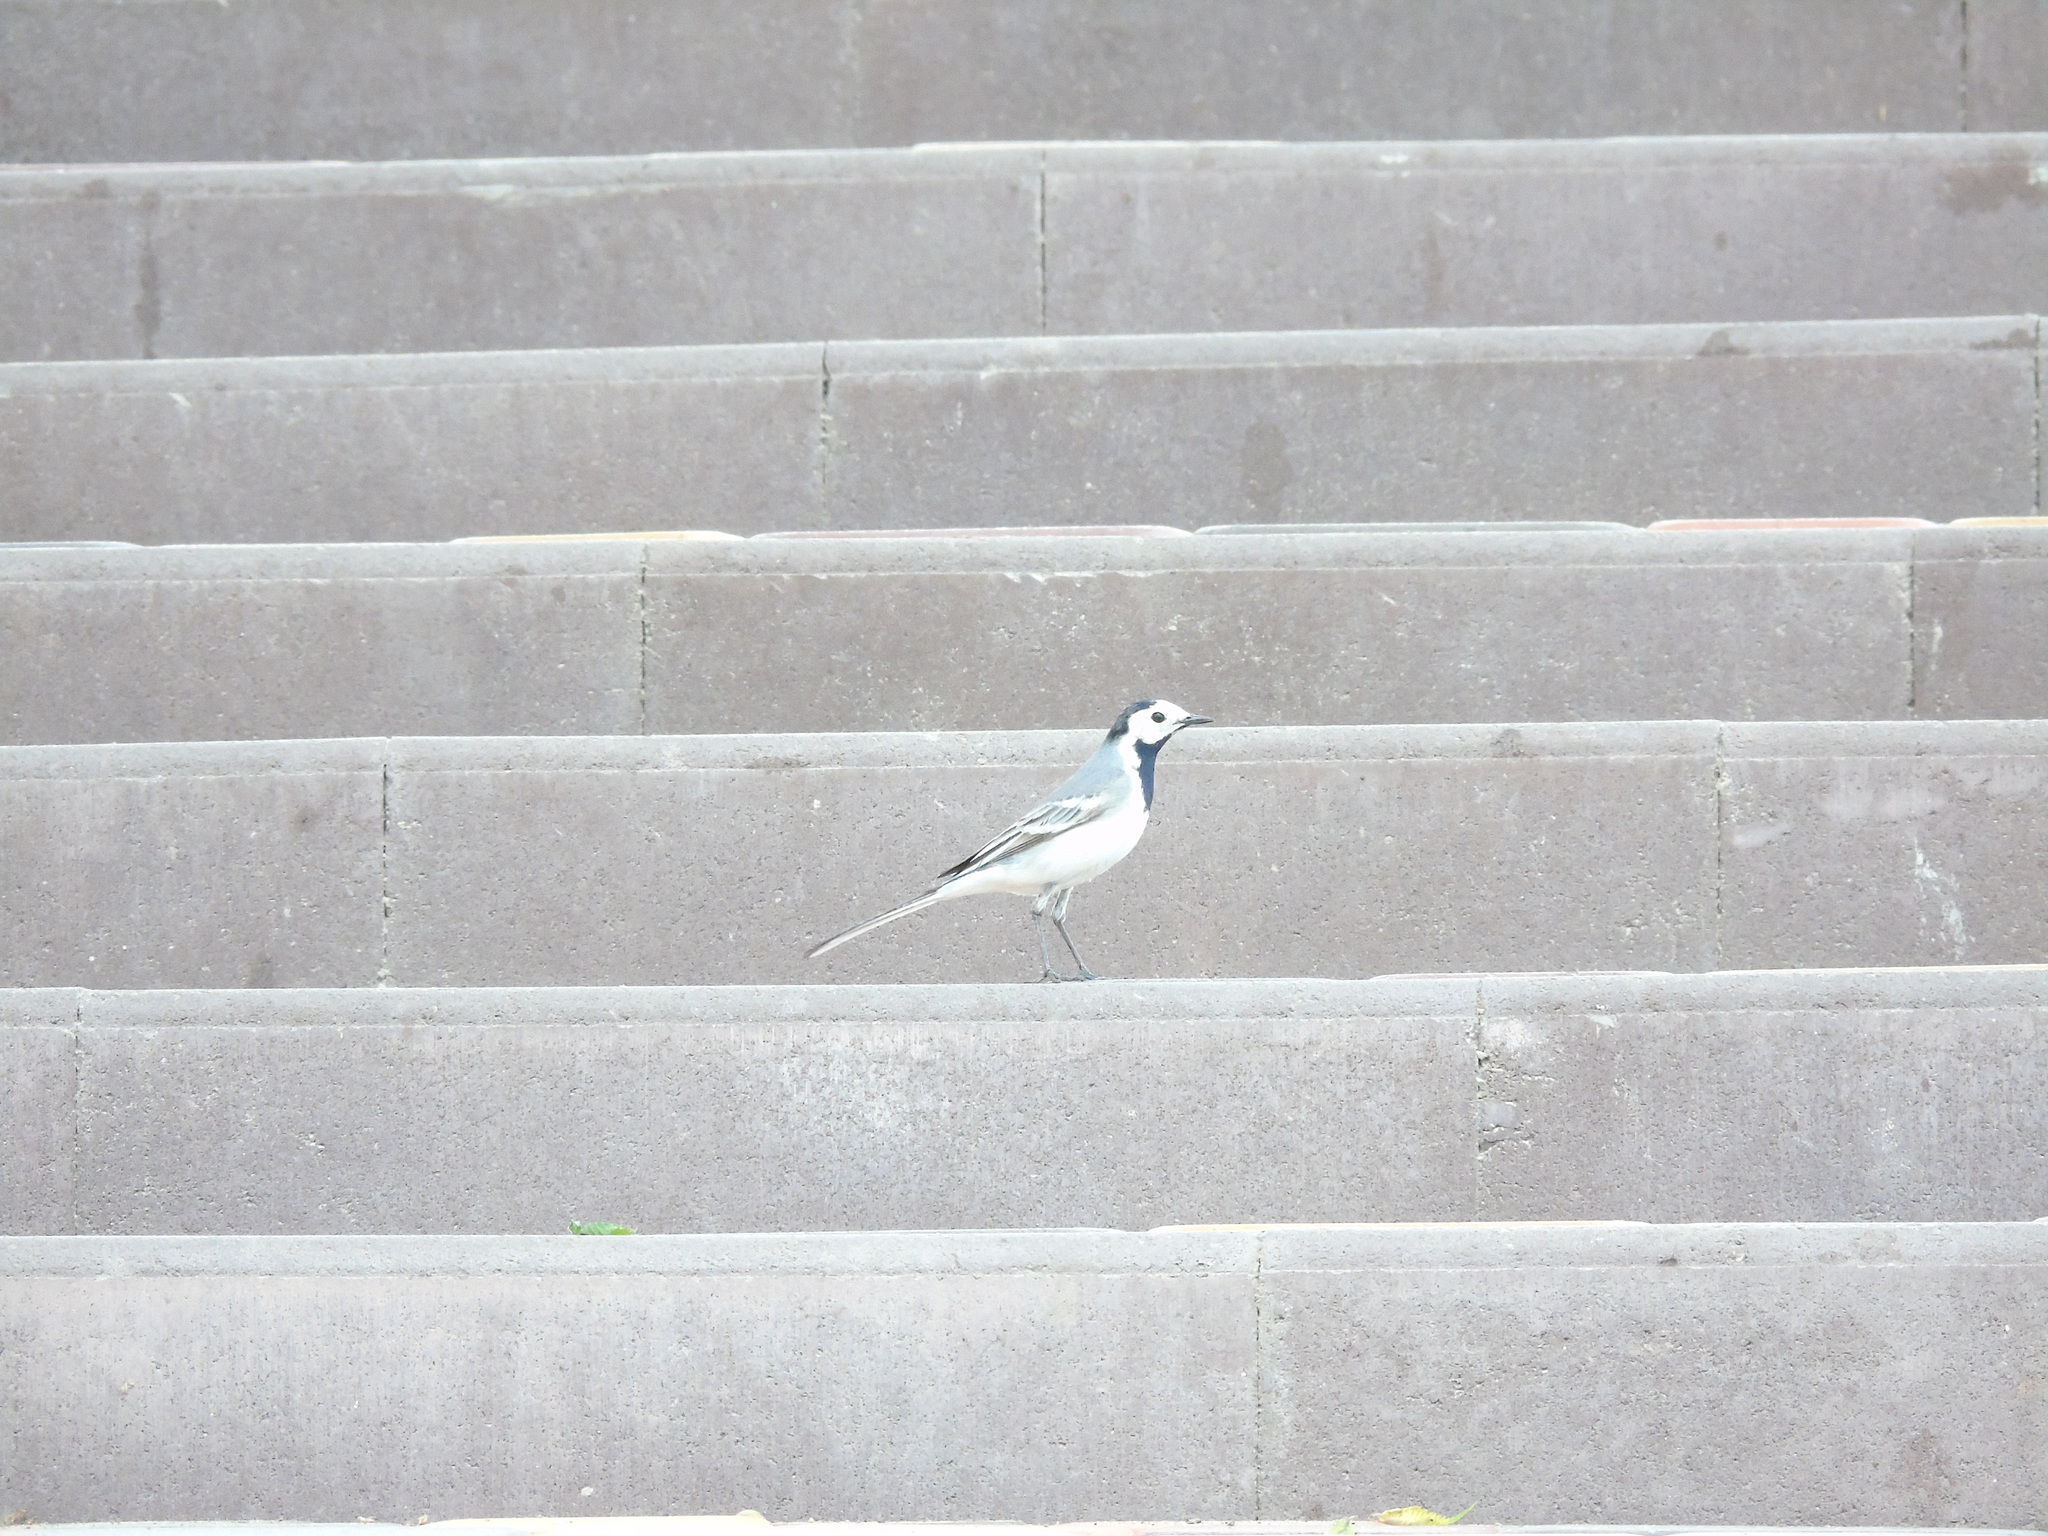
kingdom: Animalia
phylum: Chordata
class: Aves
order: Passeriformes
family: Motacillidae
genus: Motacilla
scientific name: Motacilla alba
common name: White wagtail
